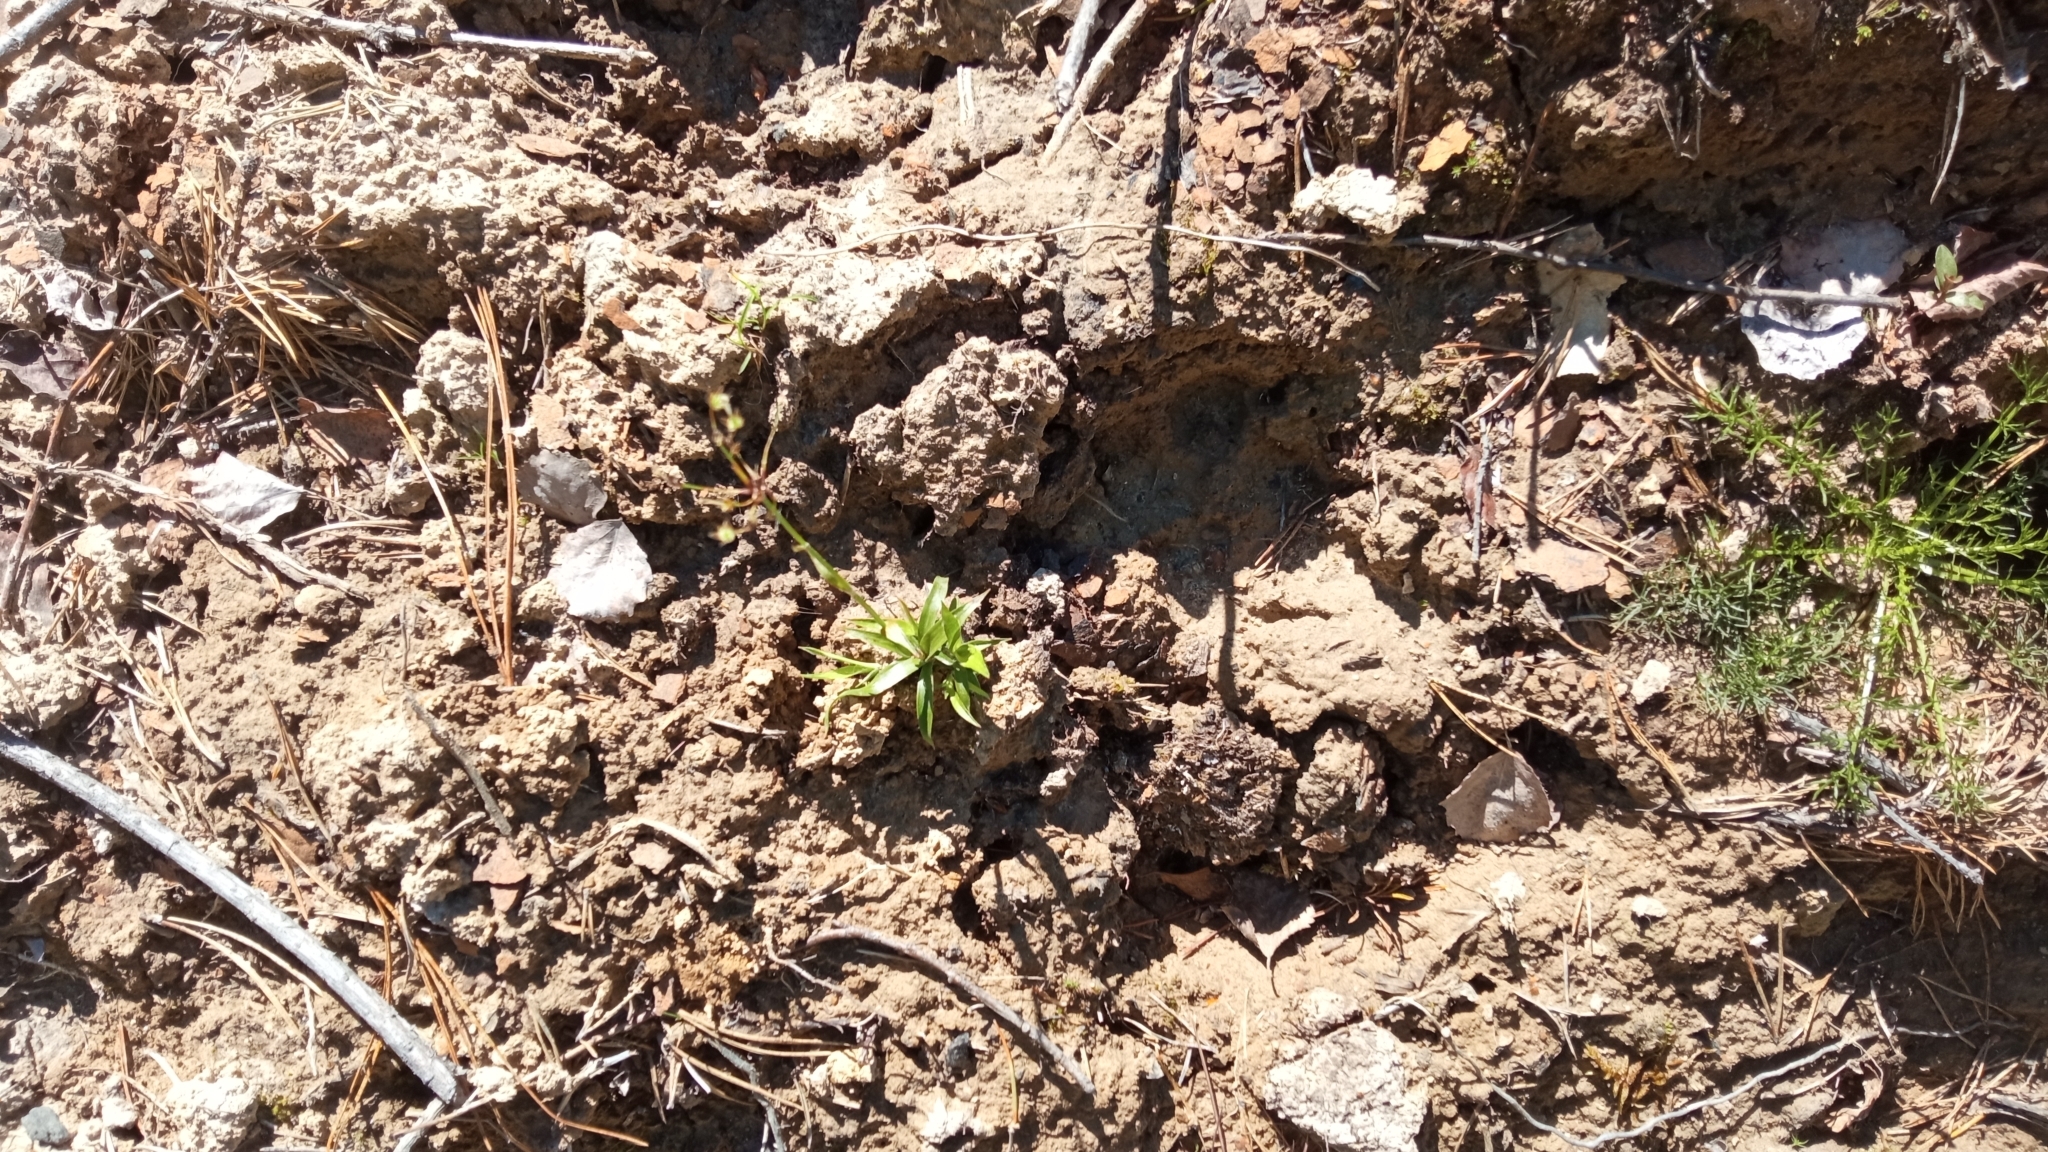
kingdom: Plantae
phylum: Tracheophyta
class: Liliopsida
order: Poales
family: Juncaceae
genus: Luzula
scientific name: Luzula pilosa
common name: Hairy wood-rush
